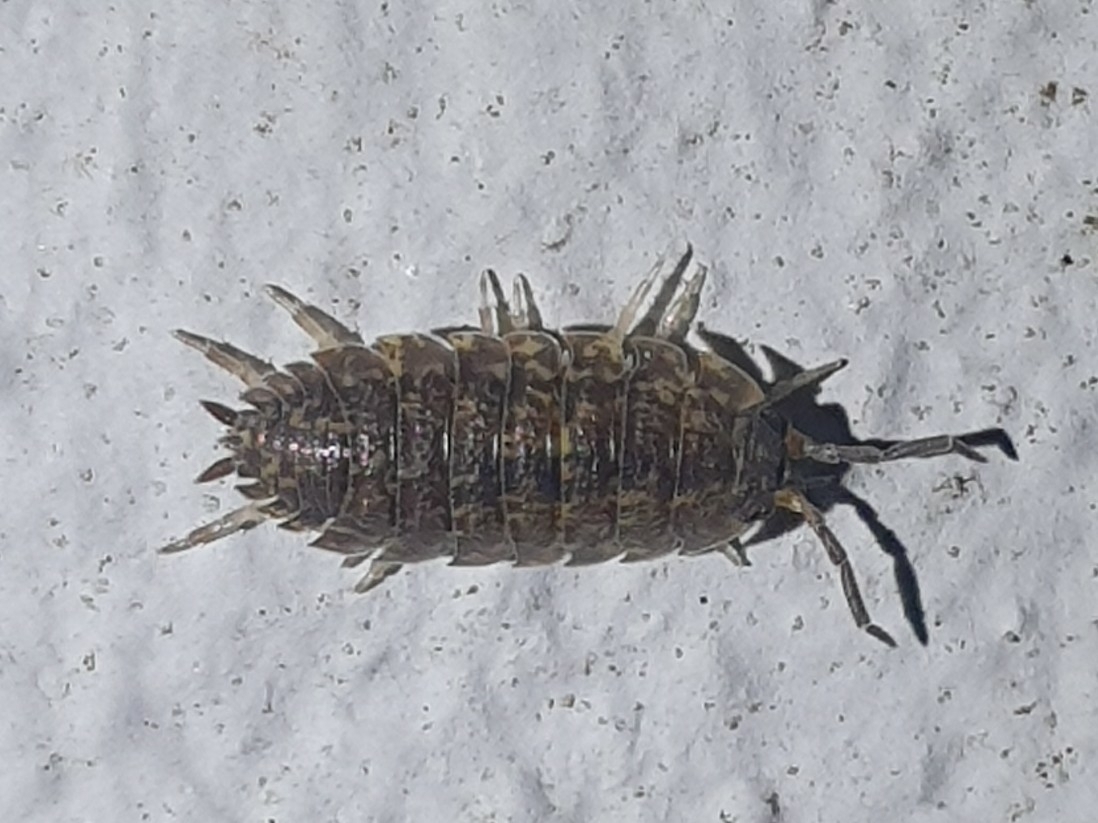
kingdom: Animalia
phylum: Arthropoda
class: Malacostraca
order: Isopoda
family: Porcellionidae
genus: Porcellio
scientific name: Porcellio scaber
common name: Common rough woodlouse
